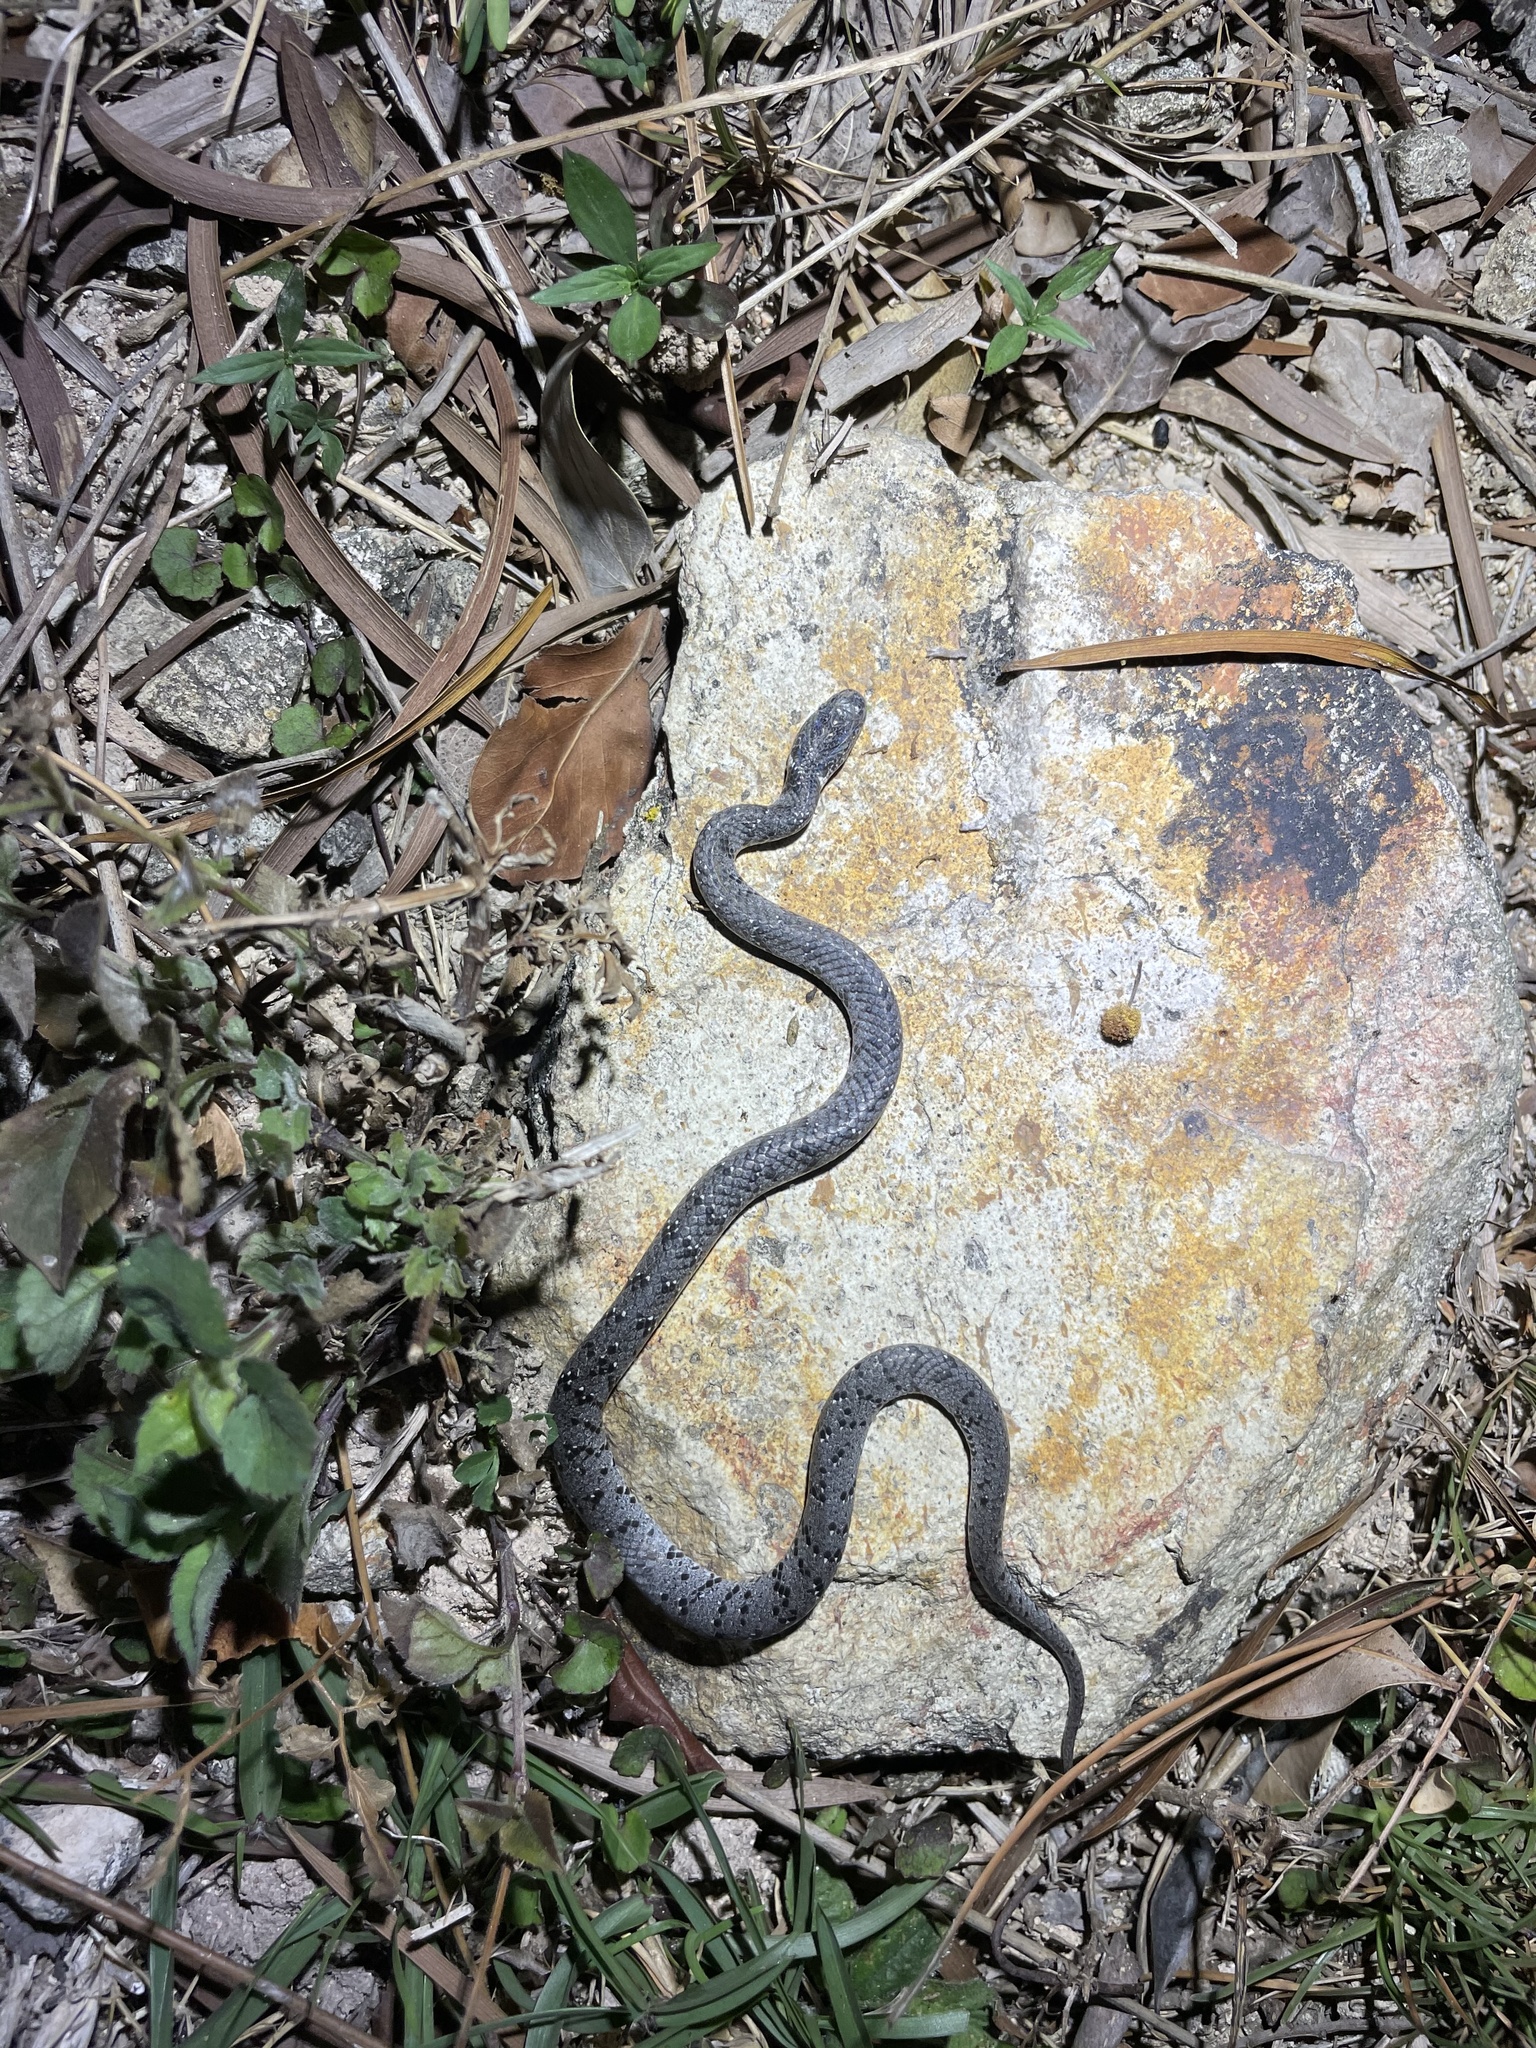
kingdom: Animalia
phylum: Chordata
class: Squamata
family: Pareidae
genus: Pareas
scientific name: Pareas margaritophorus
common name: Mountain slug snake
